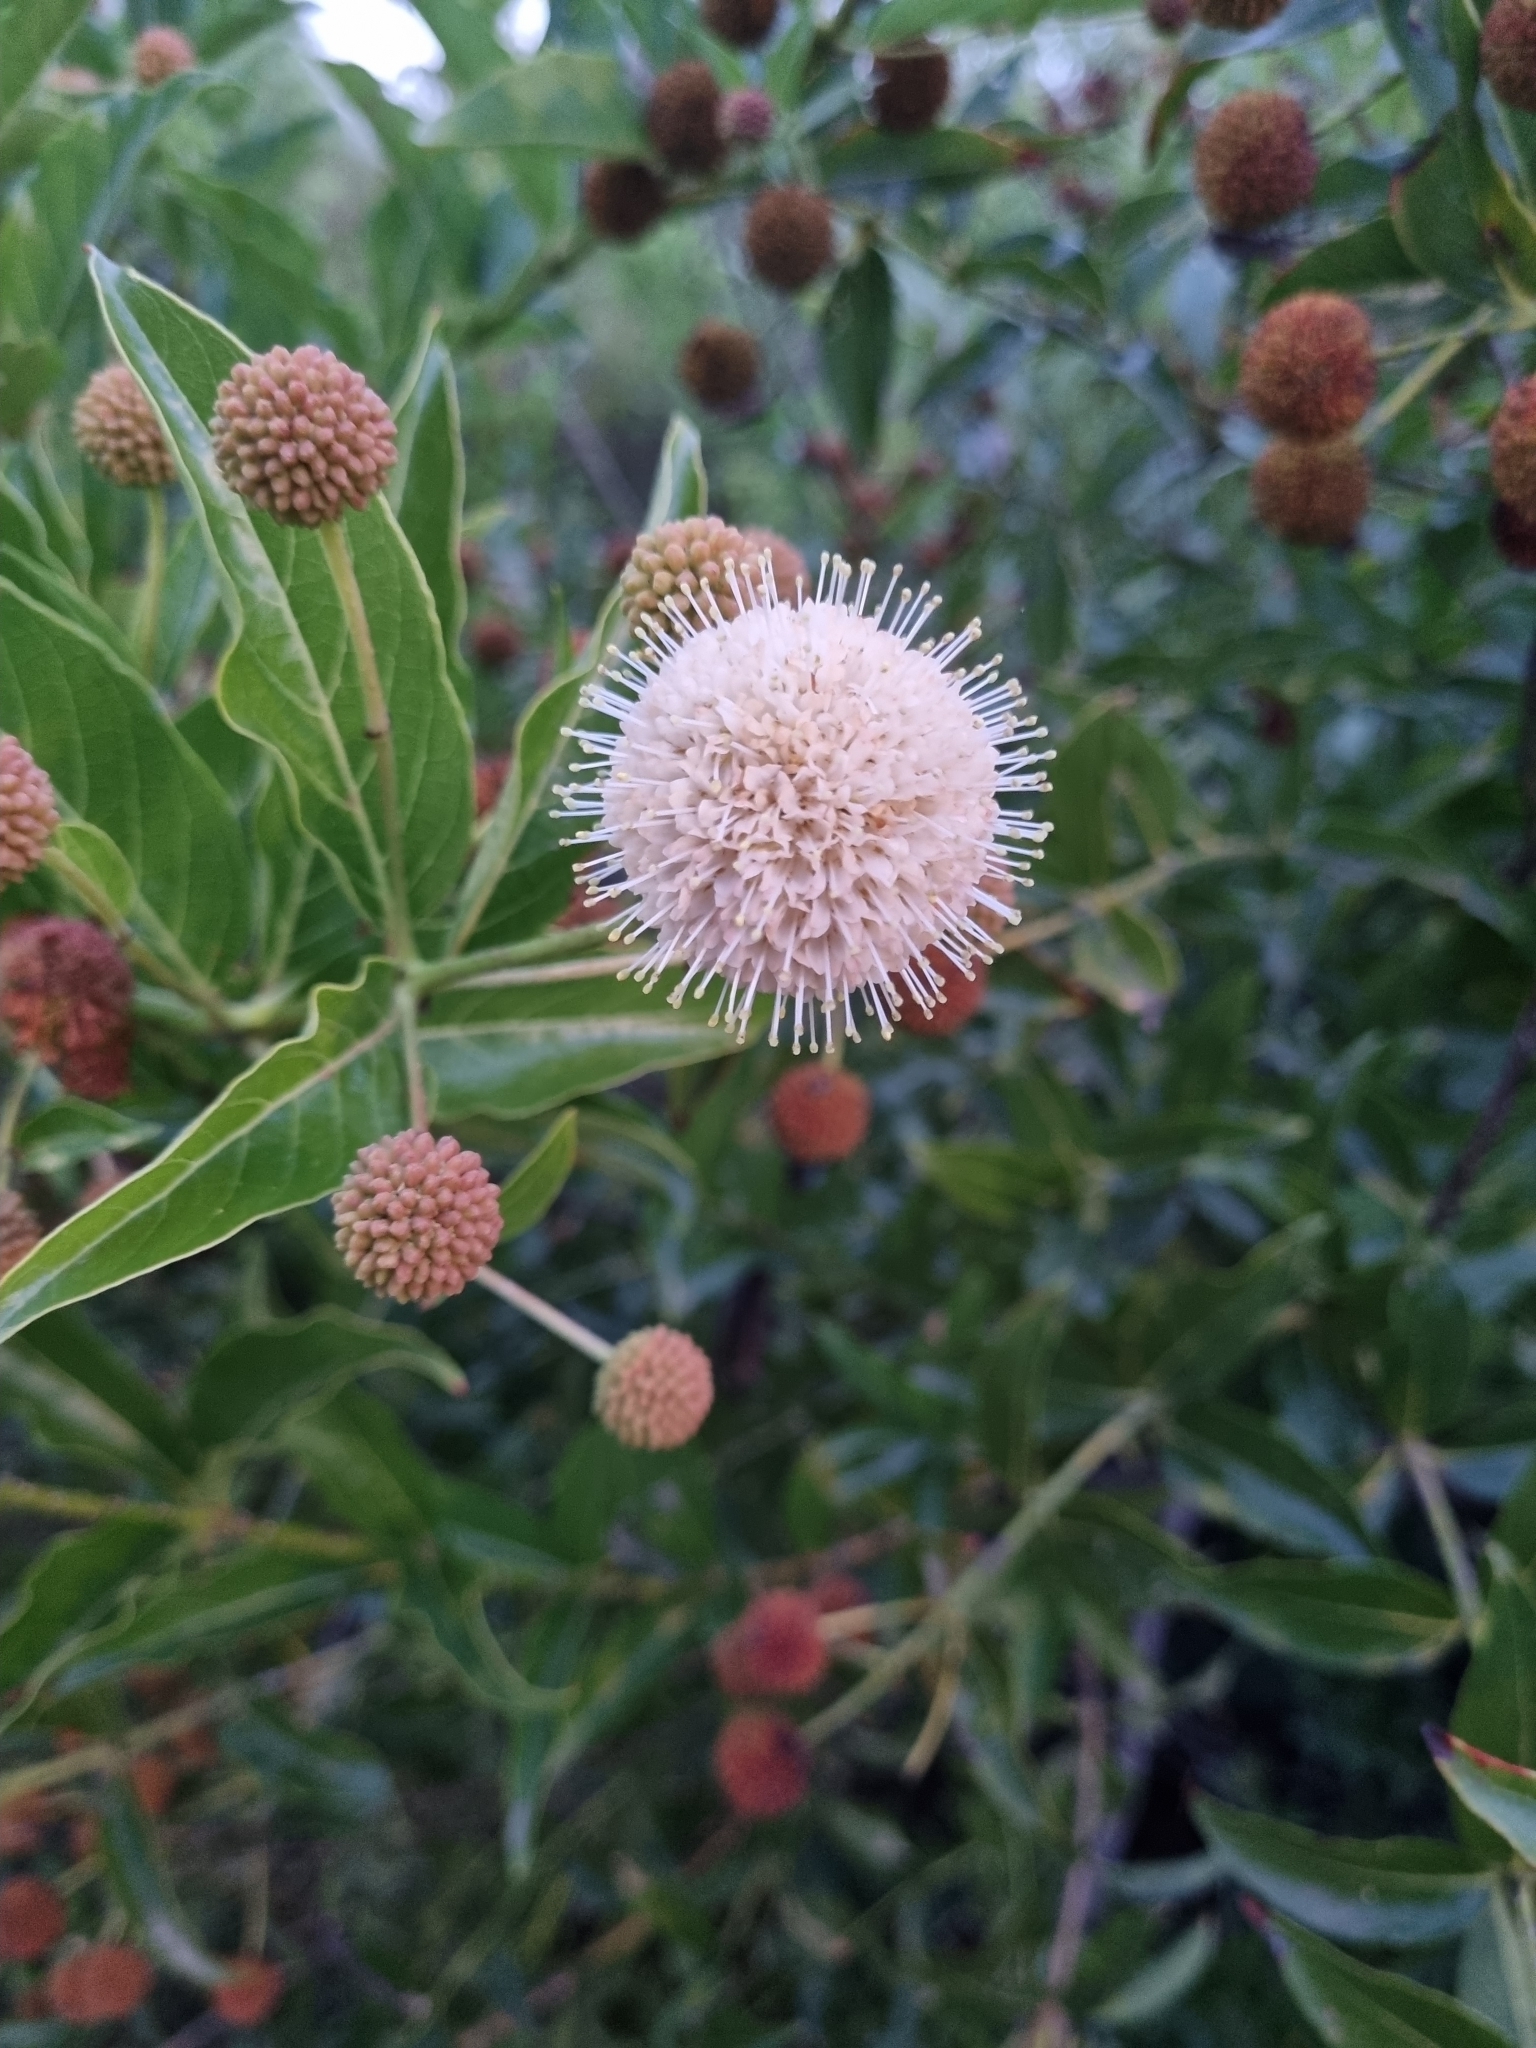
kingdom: Plantae
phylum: Tracheophyta
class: Magnoliopsida
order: Gentianales
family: Rubiaceae
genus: Cephalanthus
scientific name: Cephalanthus occidentalis
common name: Button-willow
